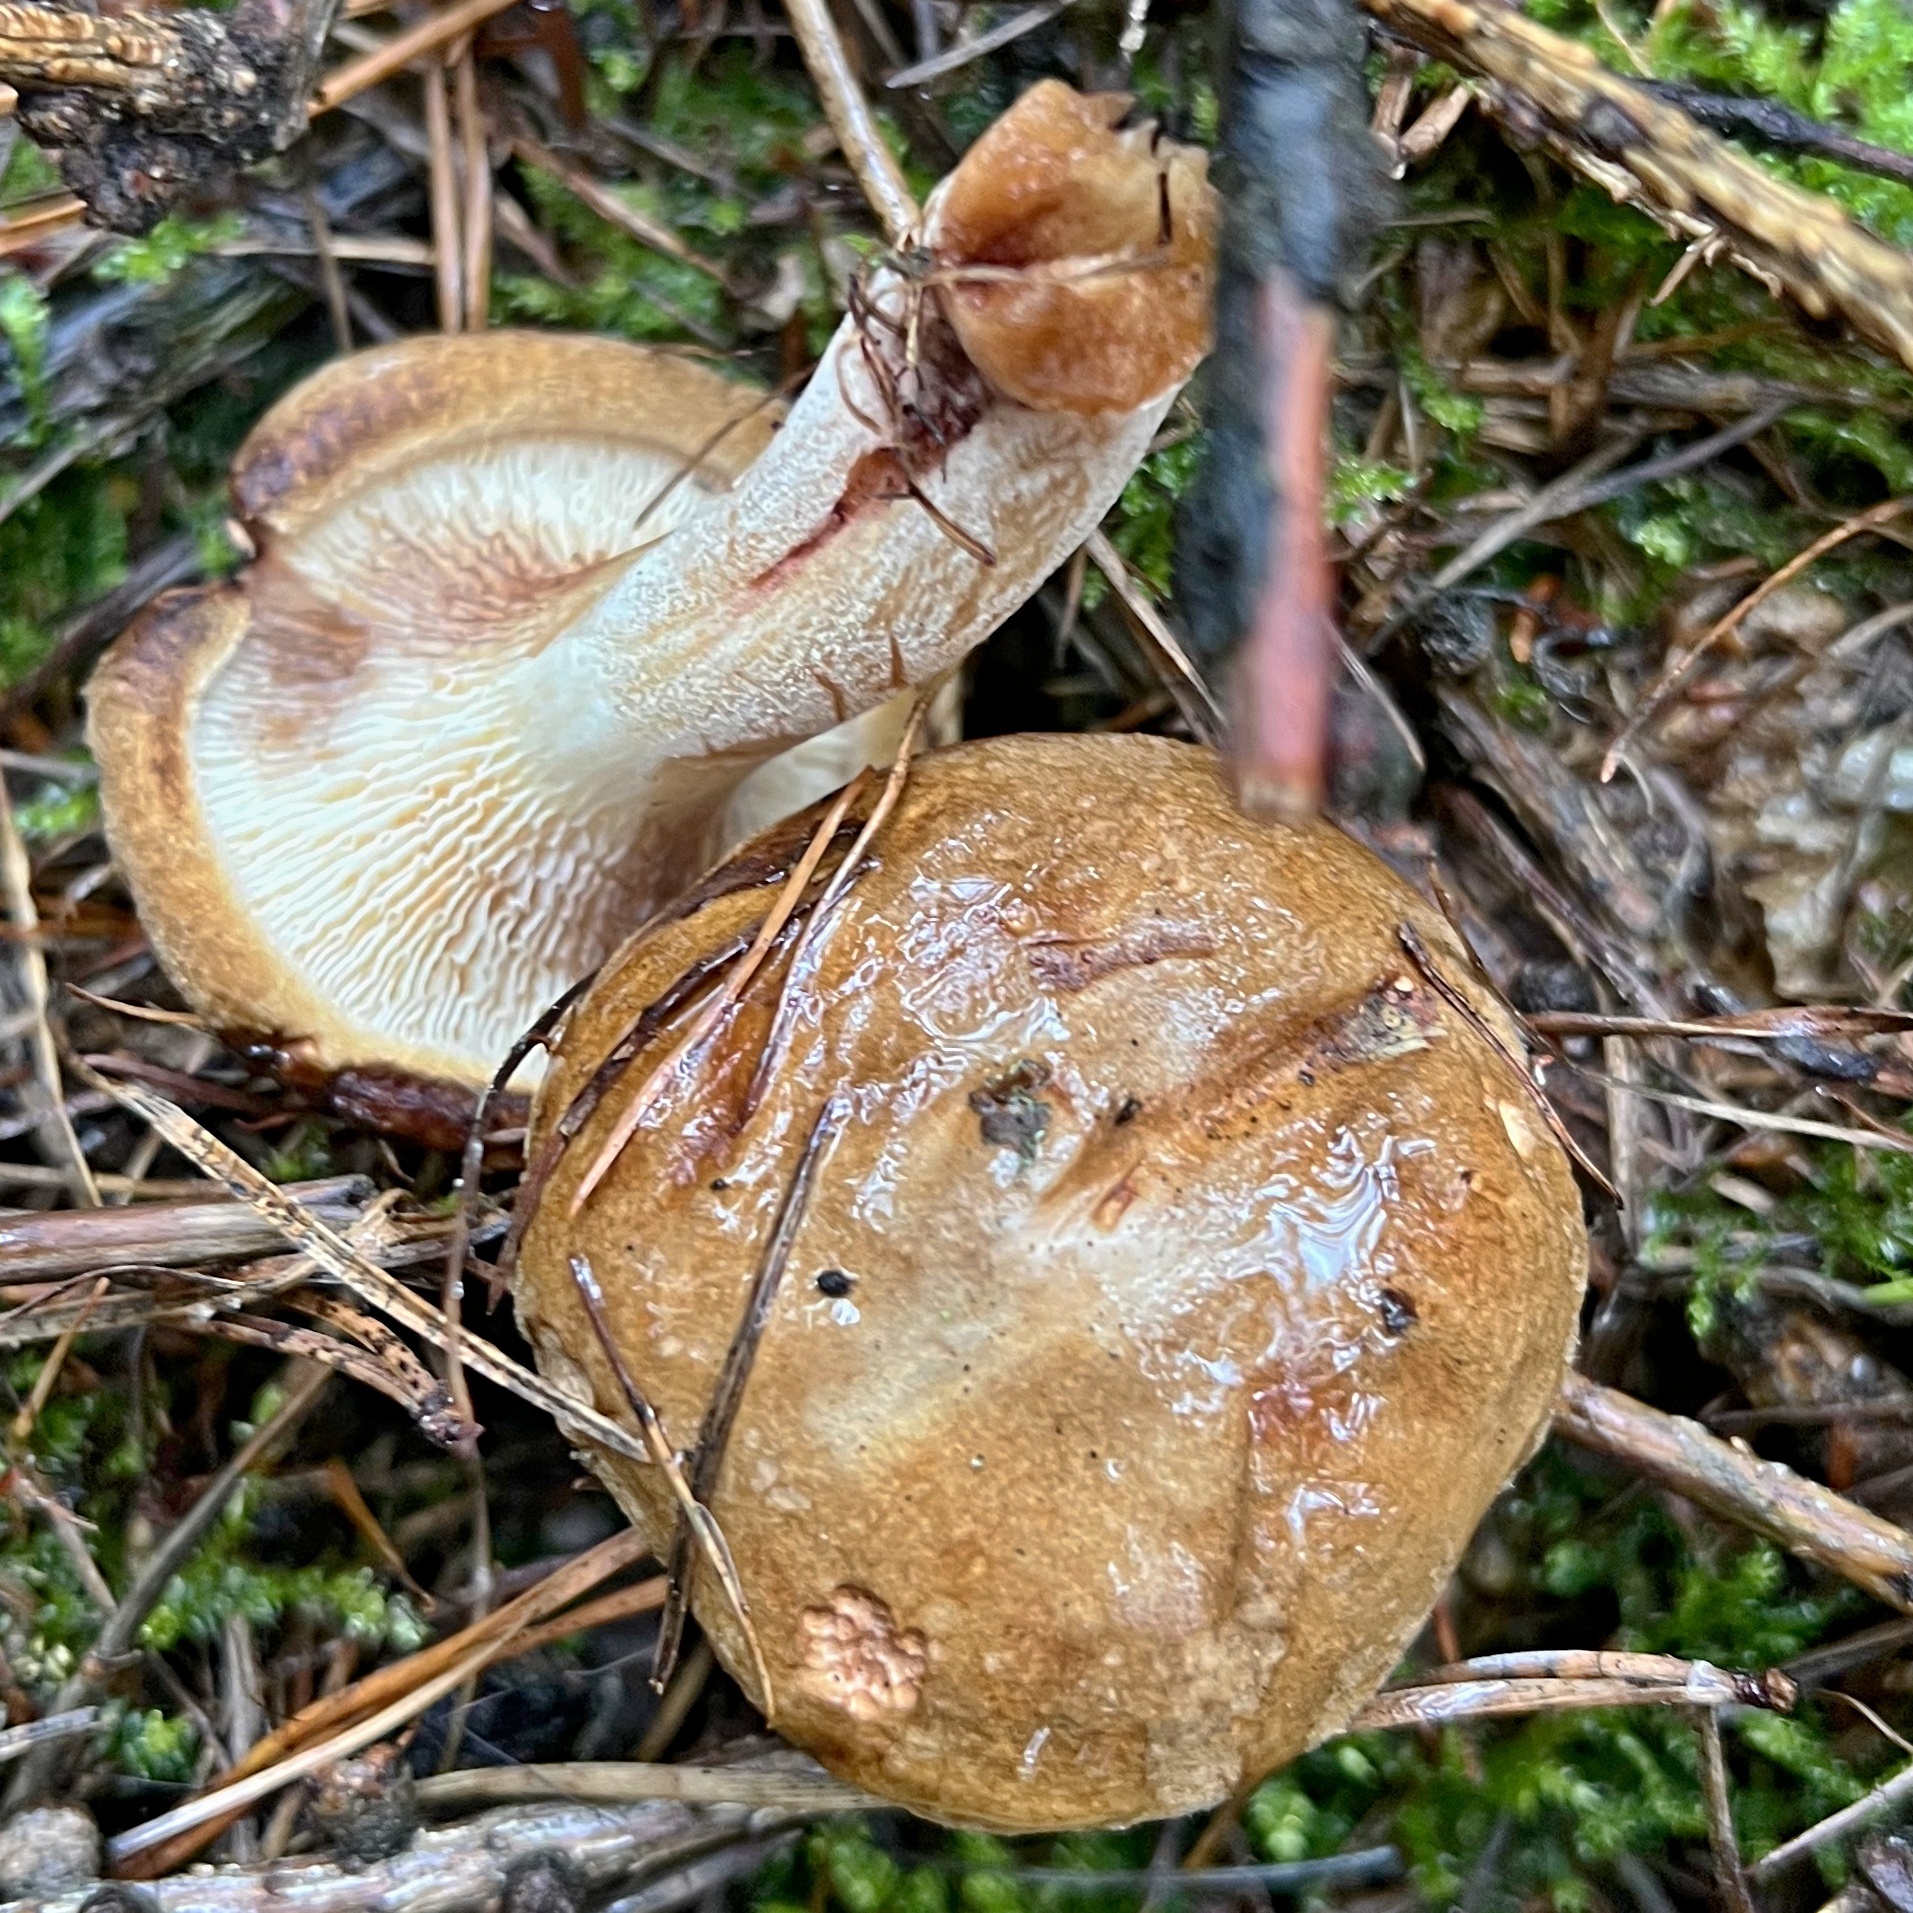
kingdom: Fungi
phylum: Basidiomycota
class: Agaricomycetes
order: Boletales
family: Paxillaceae
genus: Paxillus
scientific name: Paxillus involutus
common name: Brown roll rim
